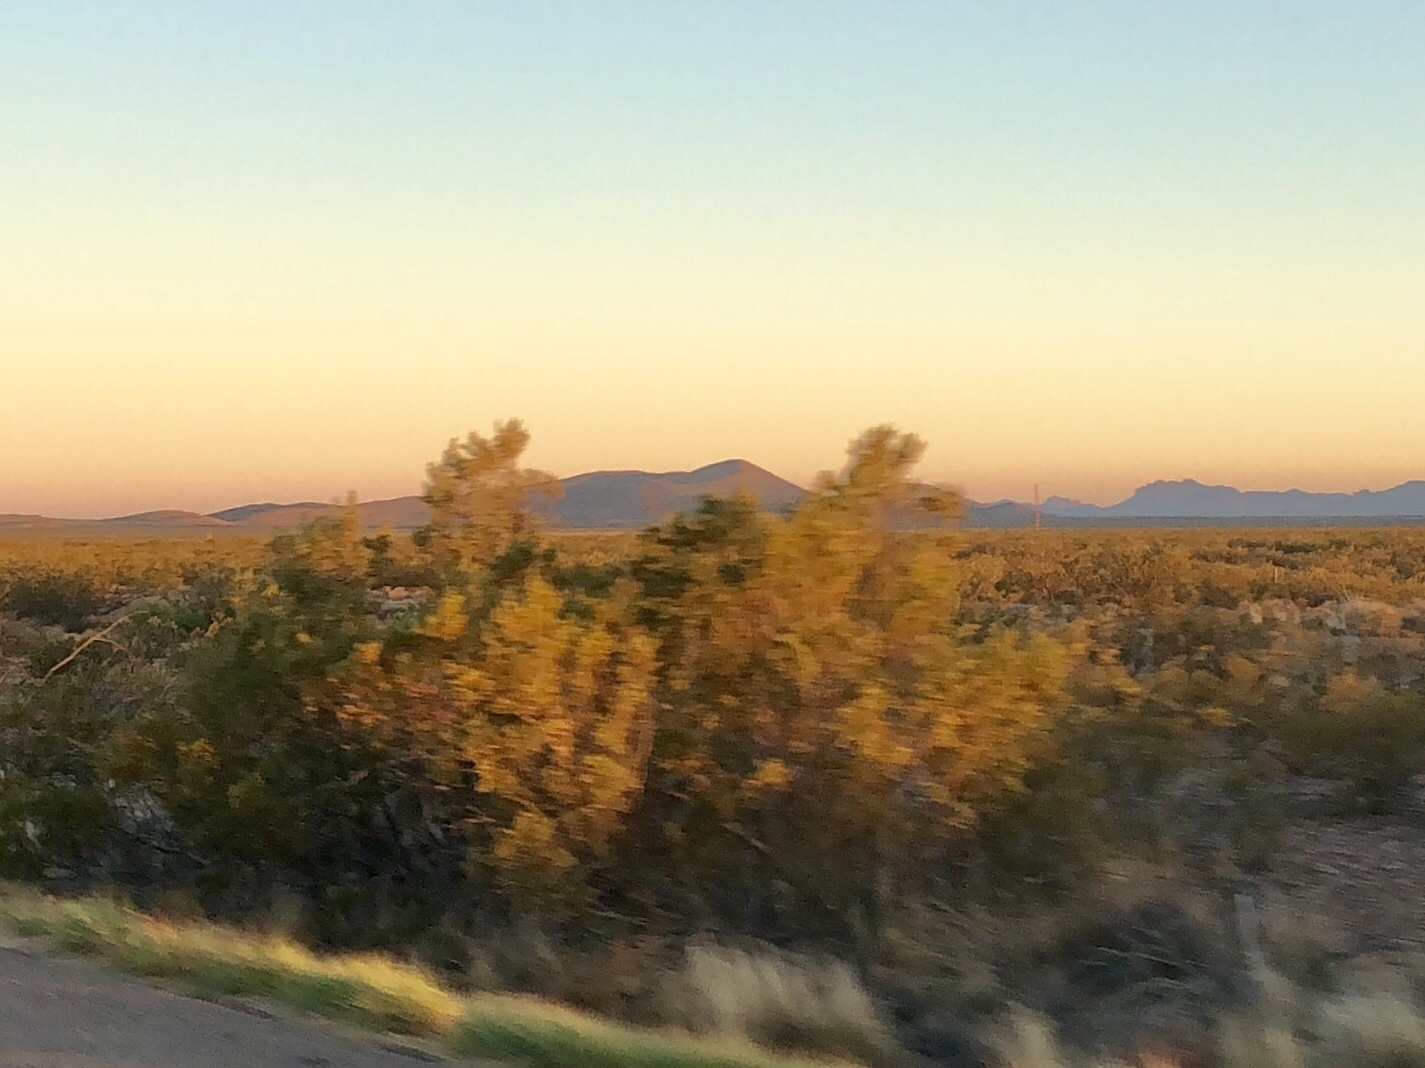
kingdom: Plantae
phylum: Tracheophyta
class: Magnoliopsida
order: Zygophyllales
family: Zygophyllaceae
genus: Larrea
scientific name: Larrea tridentata
